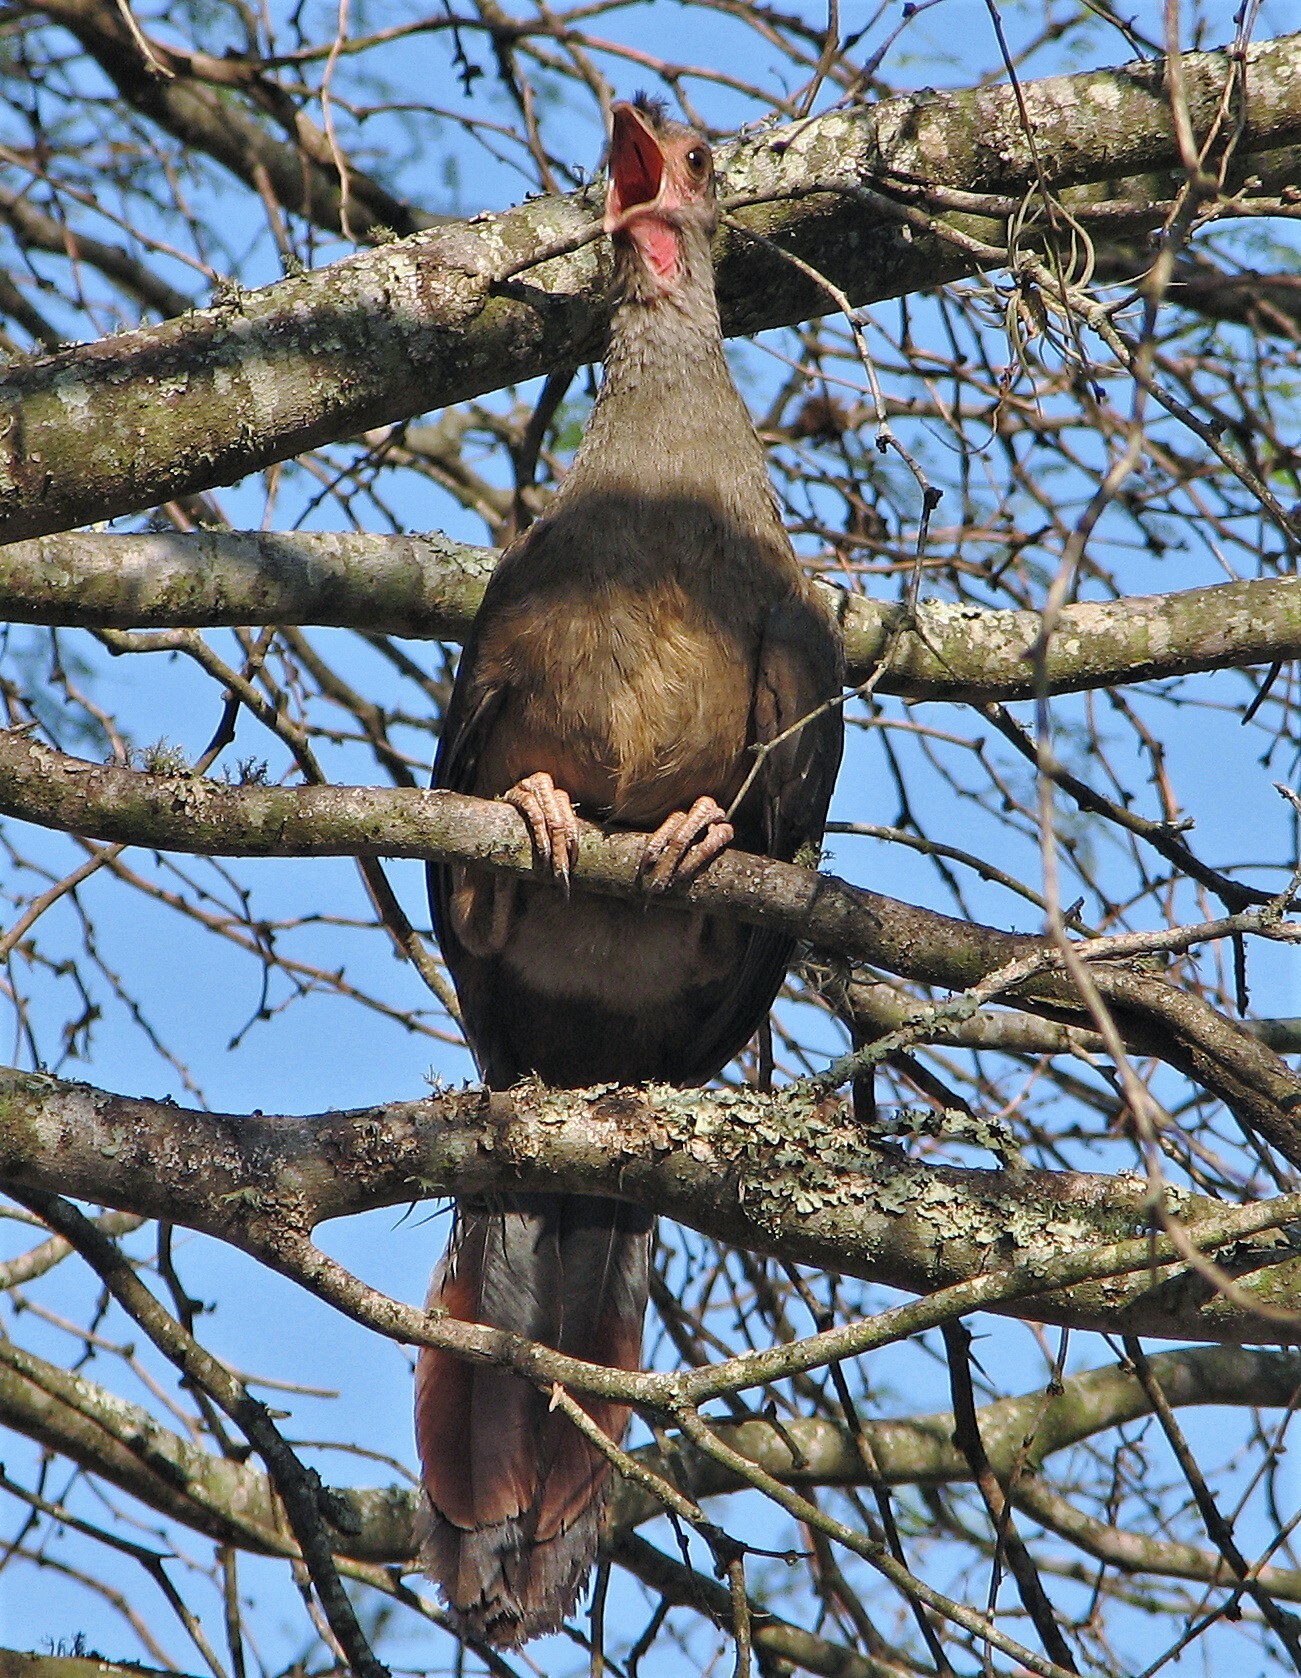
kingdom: Animalia
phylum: Chordata
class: Aves
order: Galliformes
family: Cracidae
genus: Ortalis
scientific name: Ortalis canicollis
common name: Chaco chachalaca
